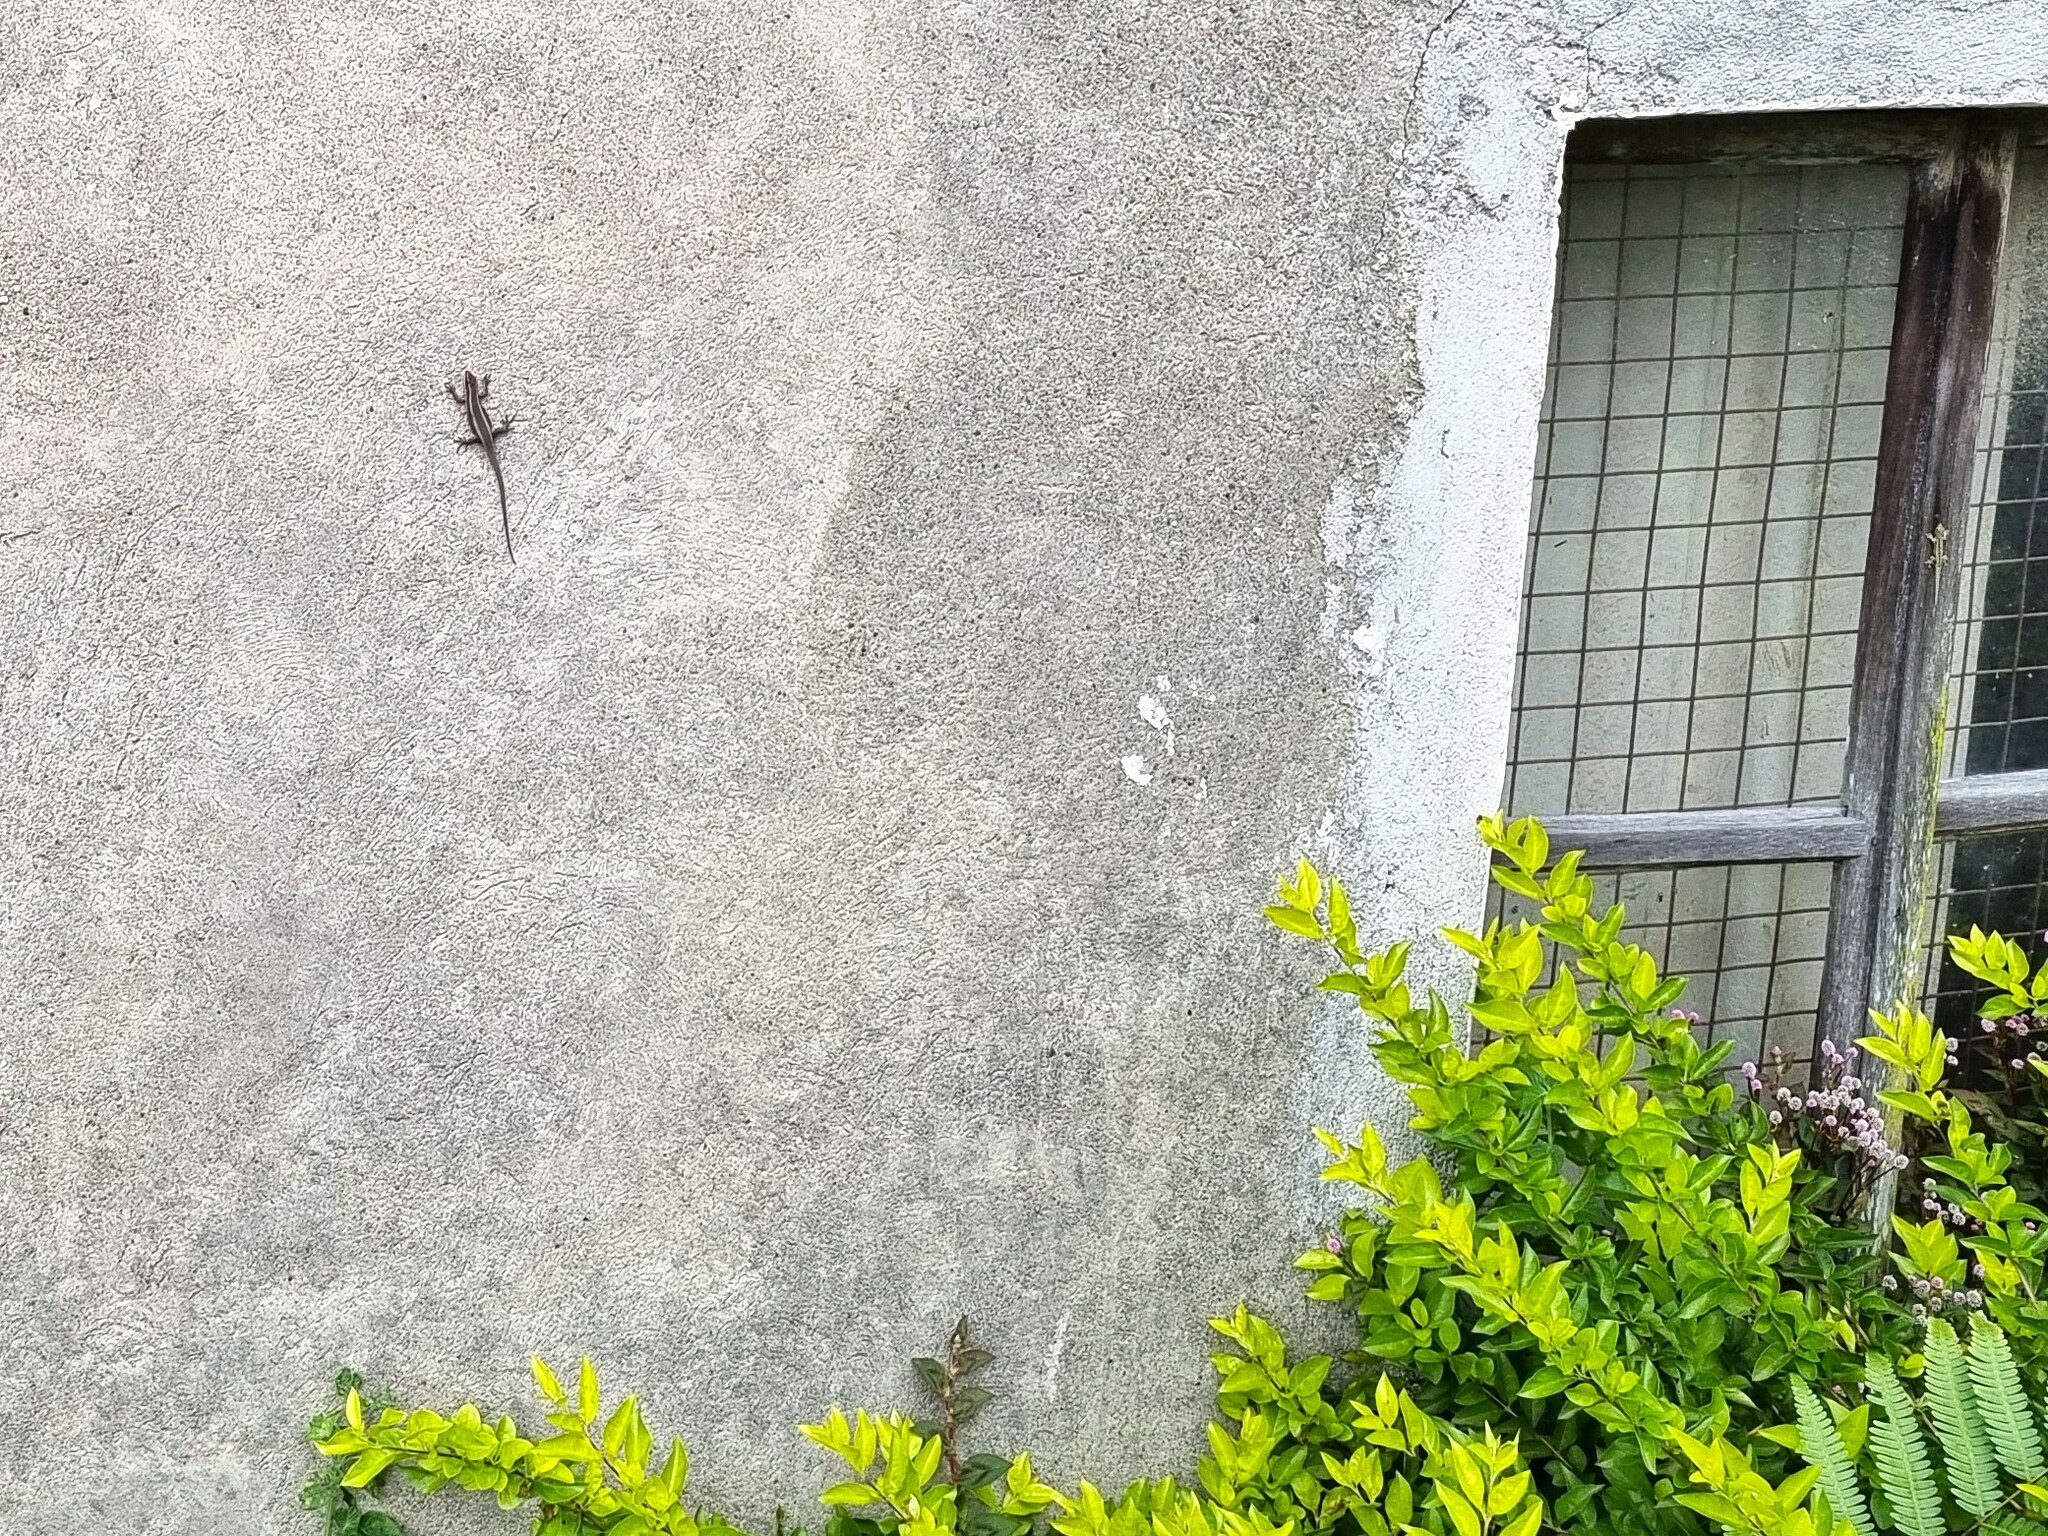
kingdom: Animalia
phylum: Chordata
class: Squamata
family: Scincidae
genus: Trachylepis
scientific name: Trachylepis striata
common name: African striped mabuya
